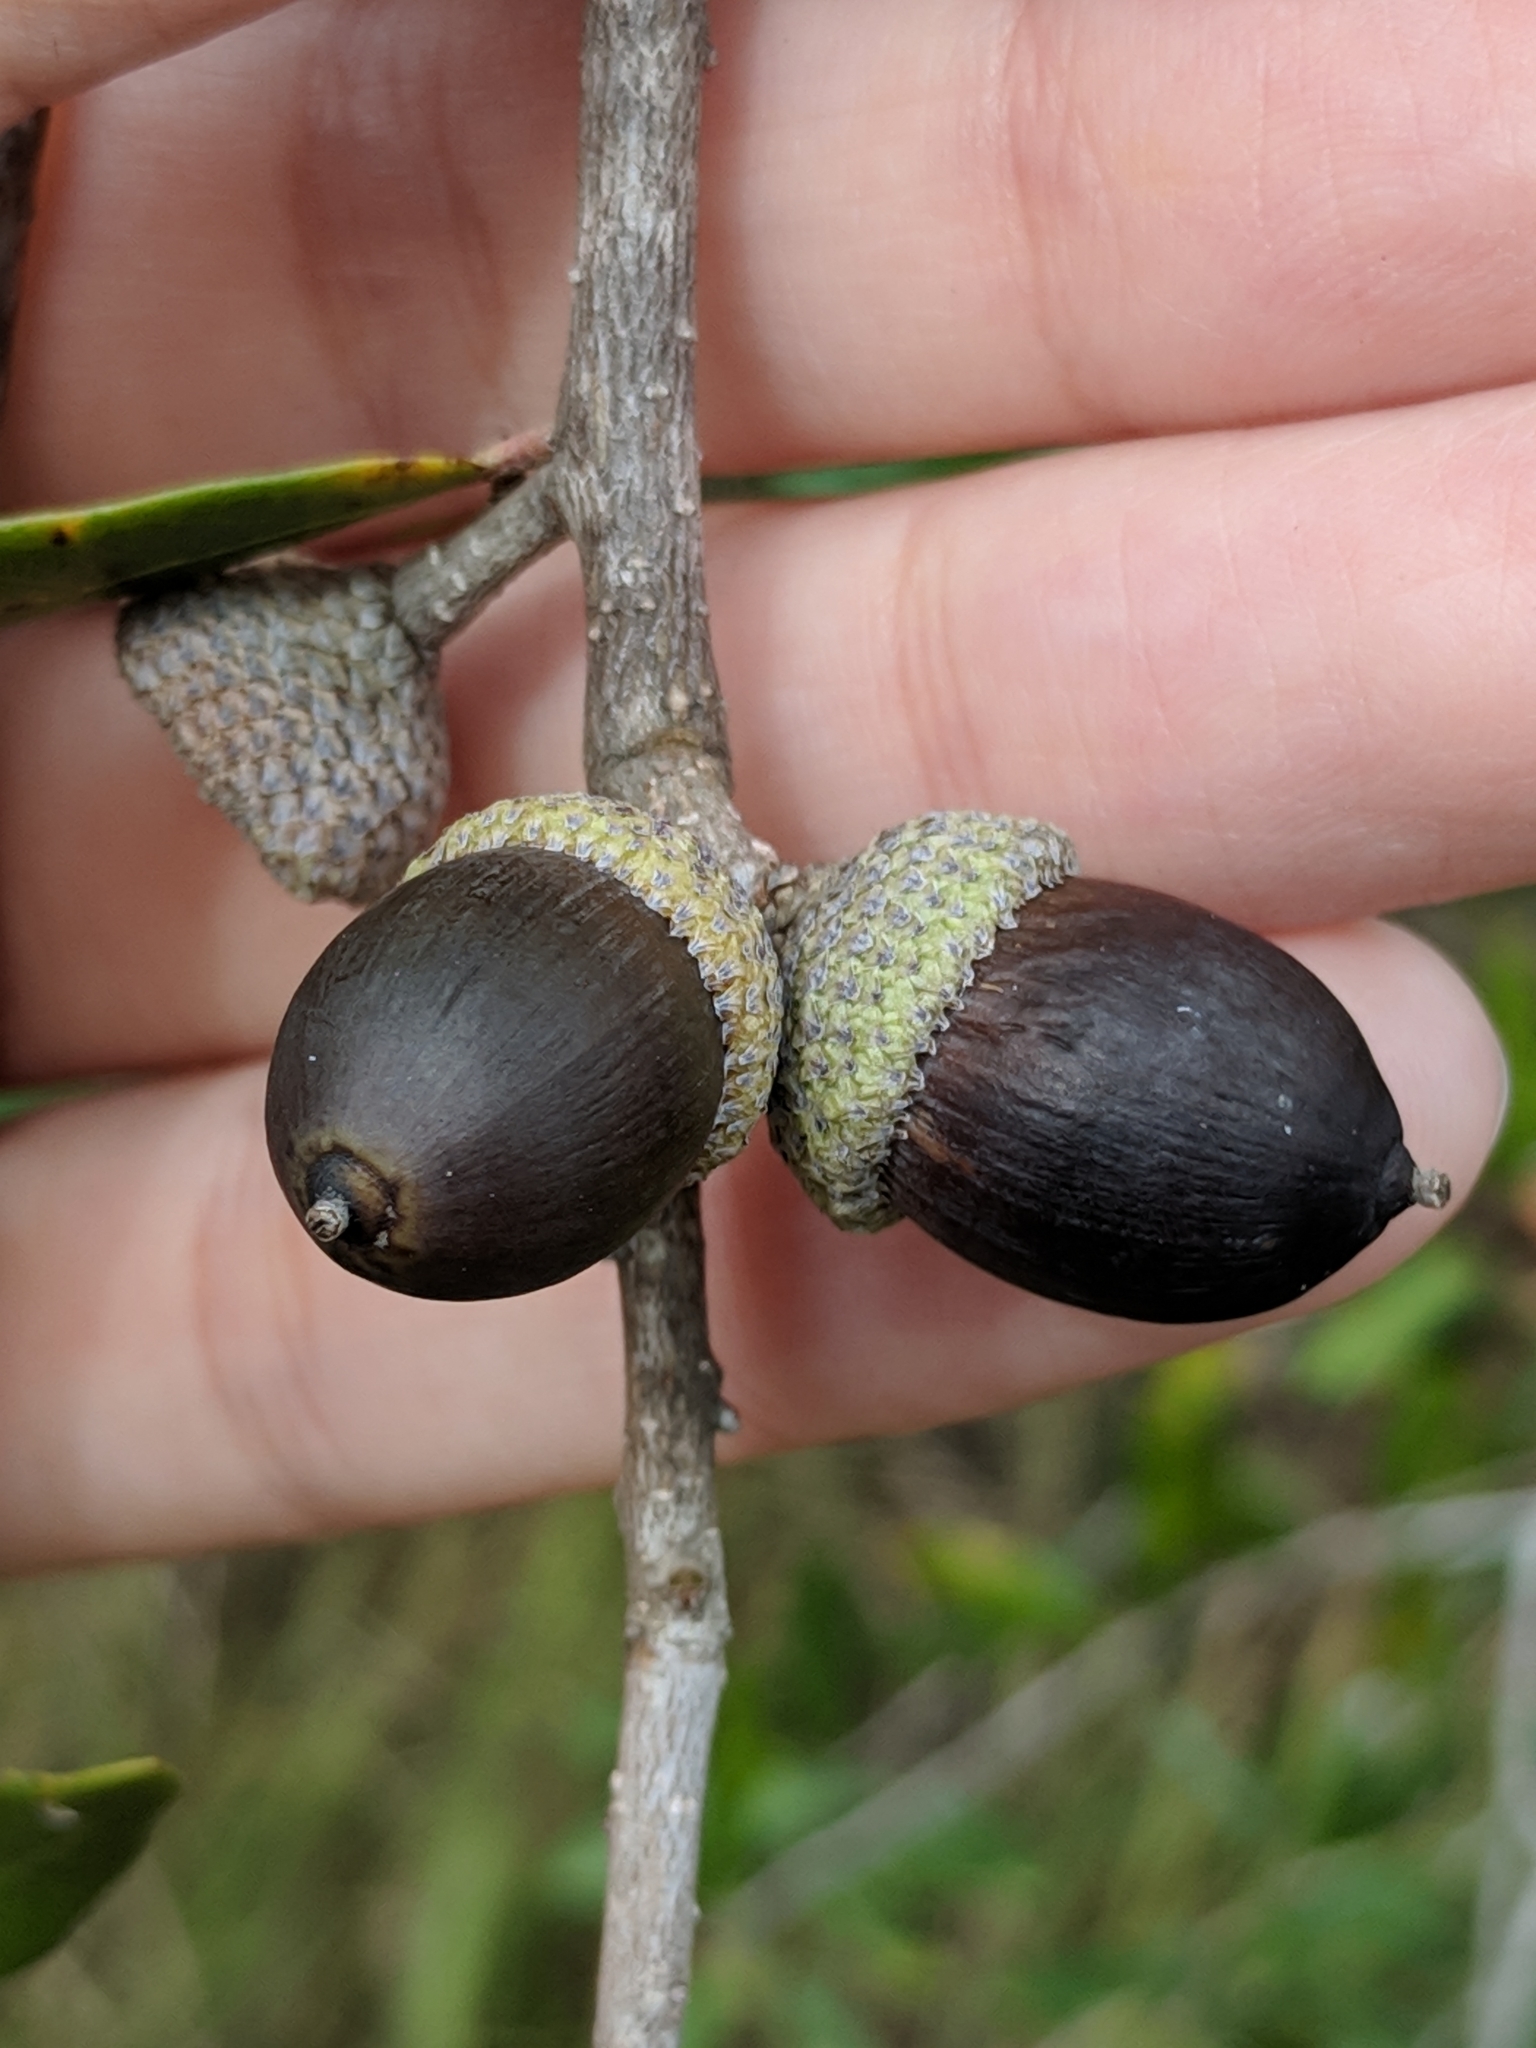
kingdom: Plantae
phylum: Tracheophyta
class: Magnoliopsida
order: Fagales
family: Fagaceae
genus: Quercus
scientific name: Quercus virginiana
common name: Southern live oak
